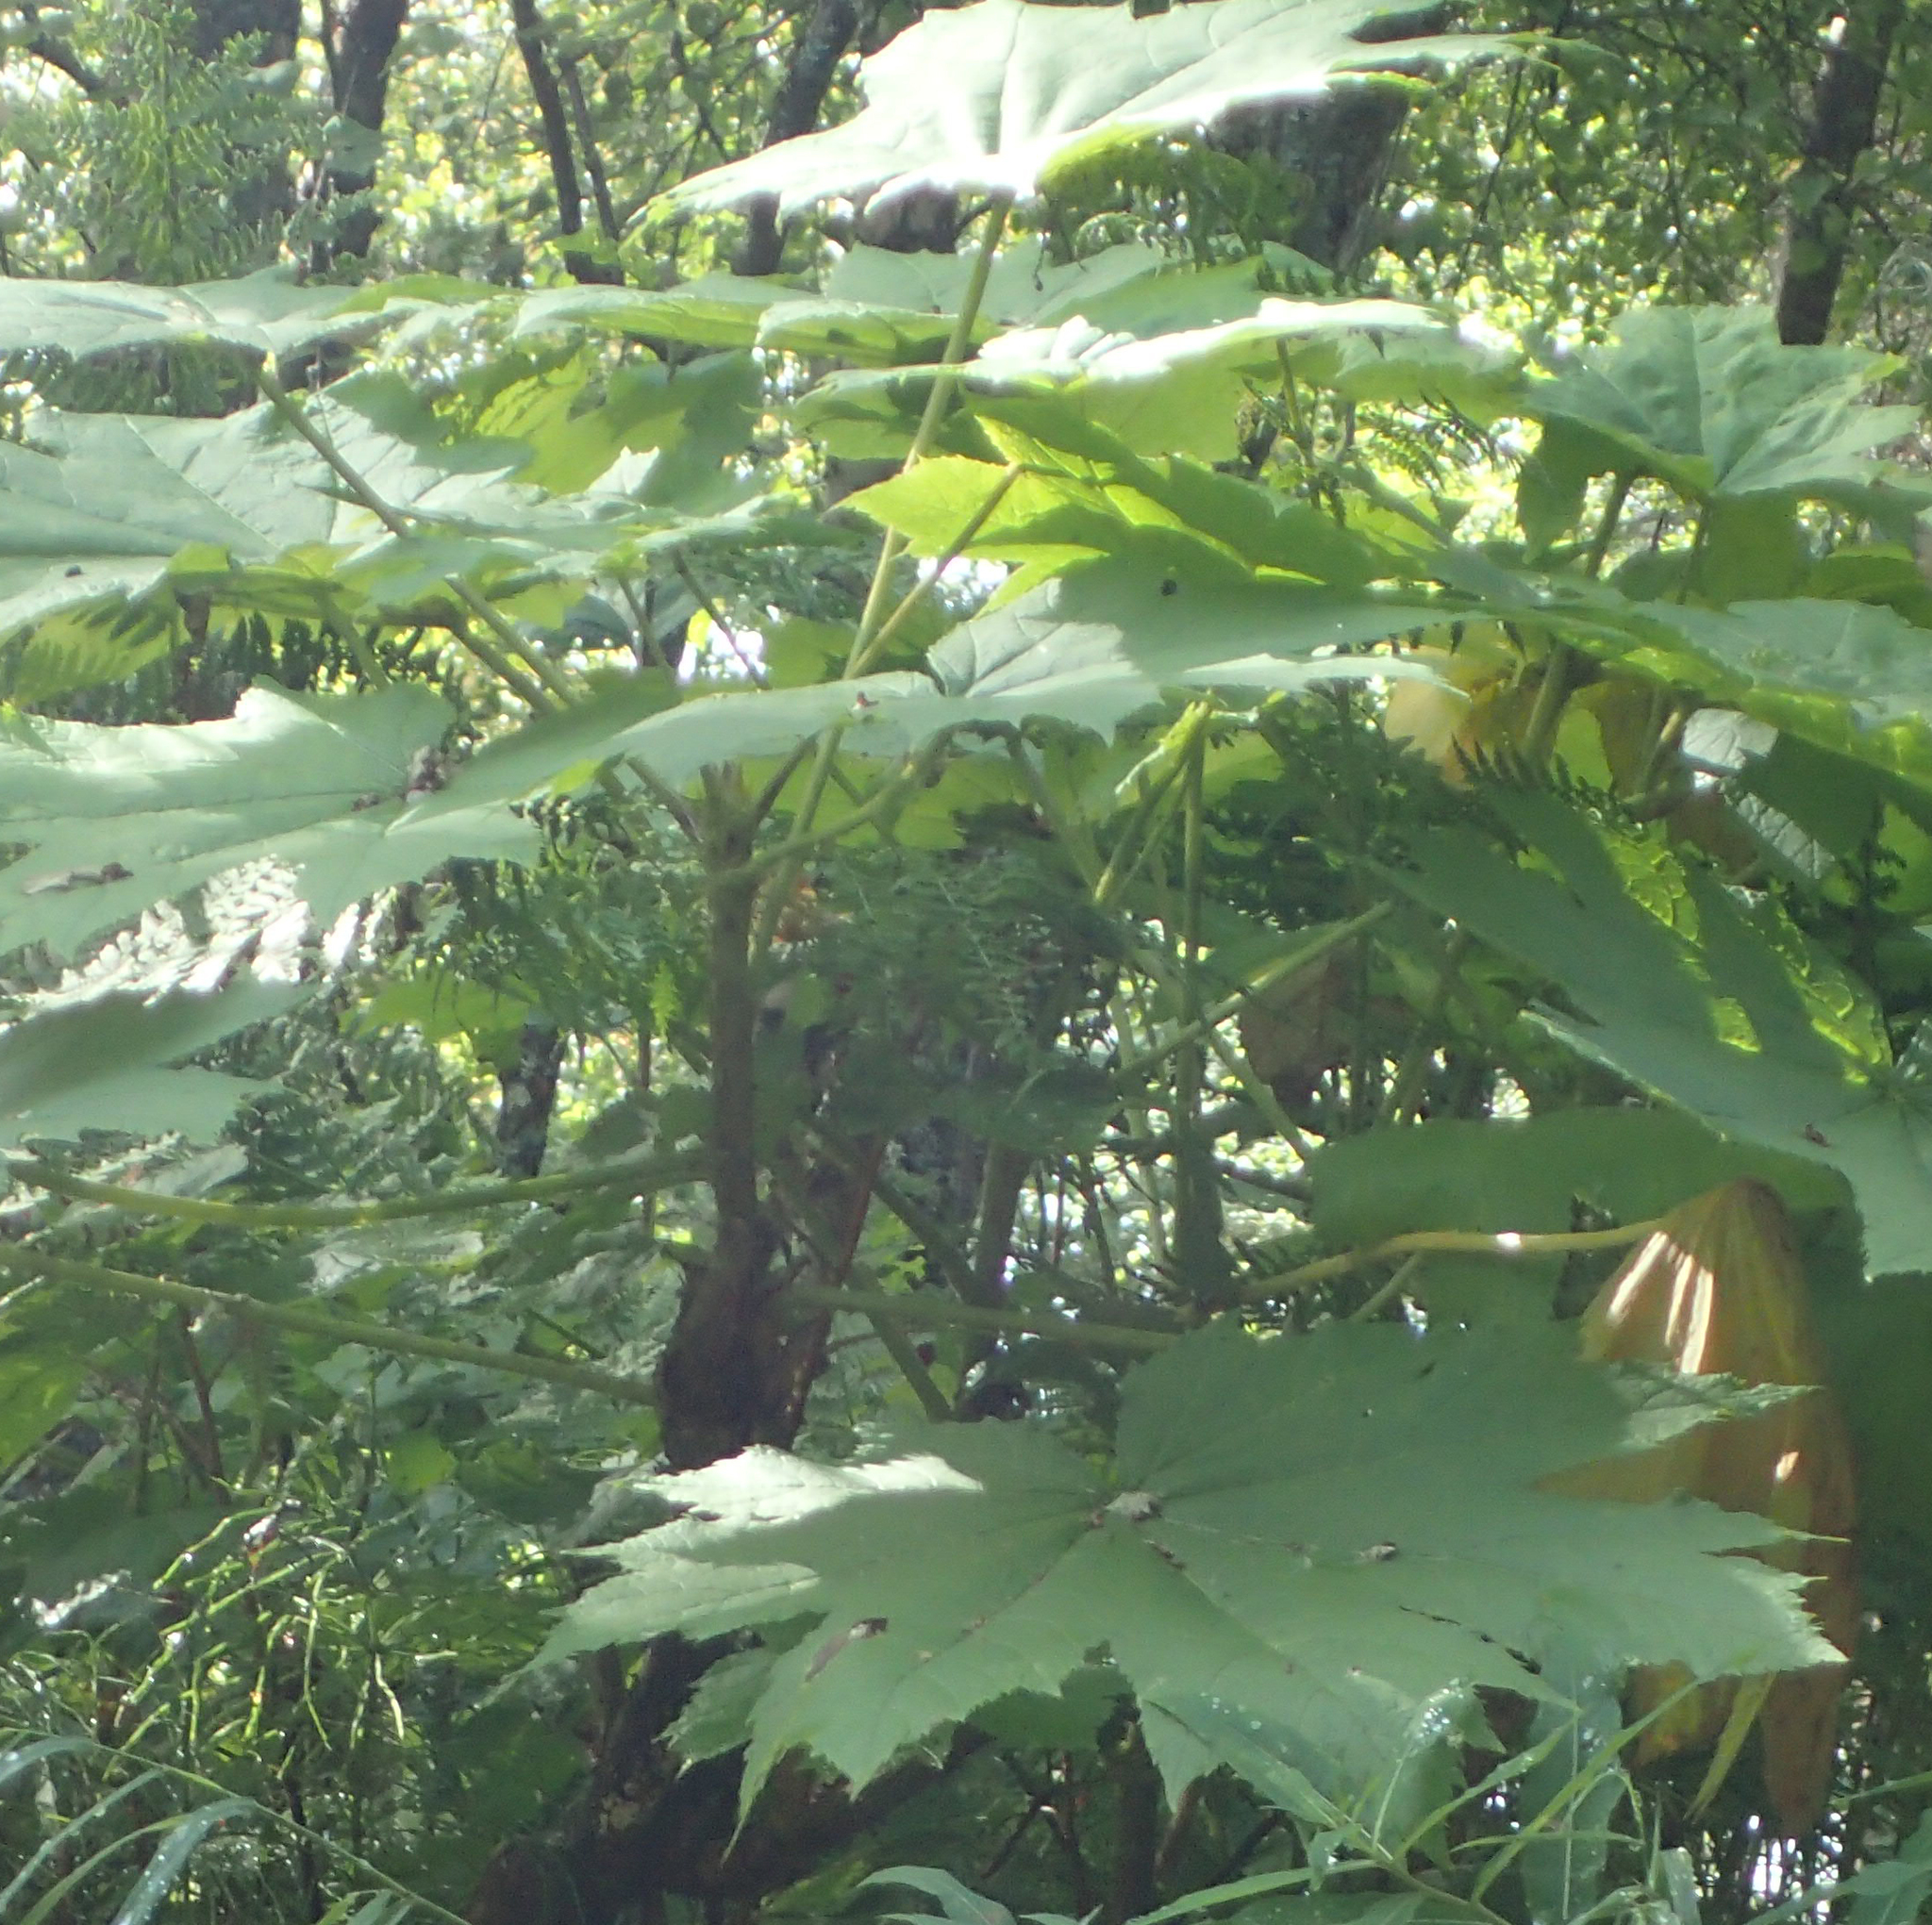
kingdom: Plantae
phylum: Tracheophyta
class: Magnoliopsida
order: Apiales
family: Araliaceae
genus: Oplopanax
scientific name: Oplopanax horridus
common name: Devil's walking-stick
